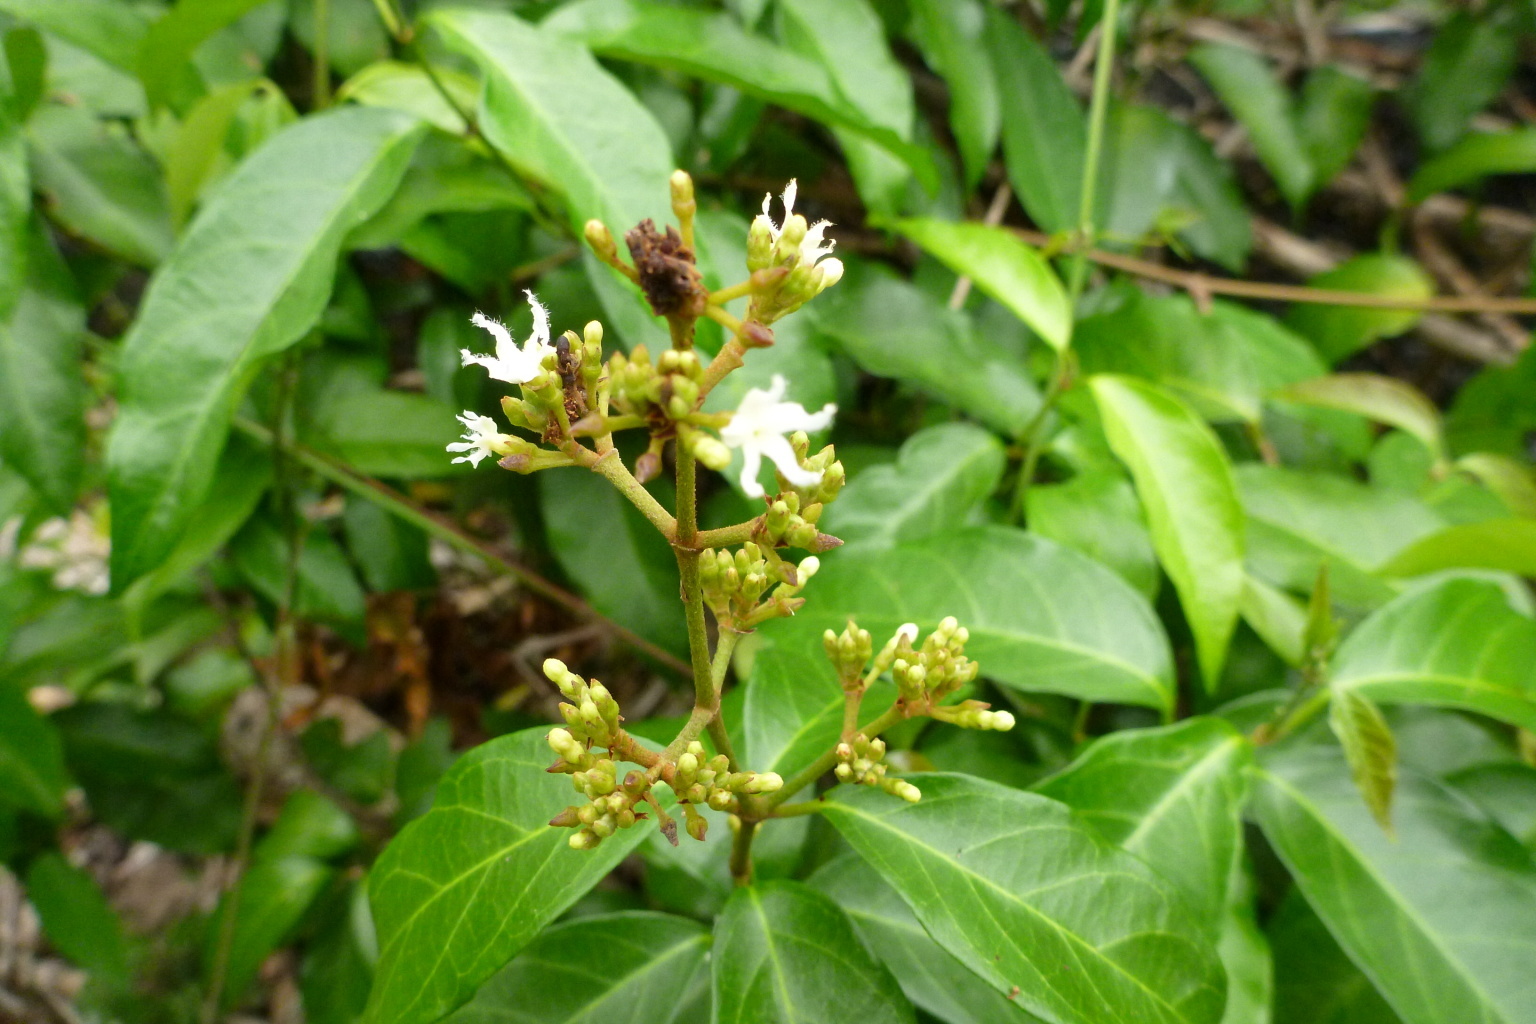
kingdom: Plantae
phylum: Tracheophyta
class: Magnoliopsida
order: Gentianales
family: Apocynaceae
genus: Ichnocarpus
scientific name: Ichnocarpus frutescens
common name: Ichnocarpus
